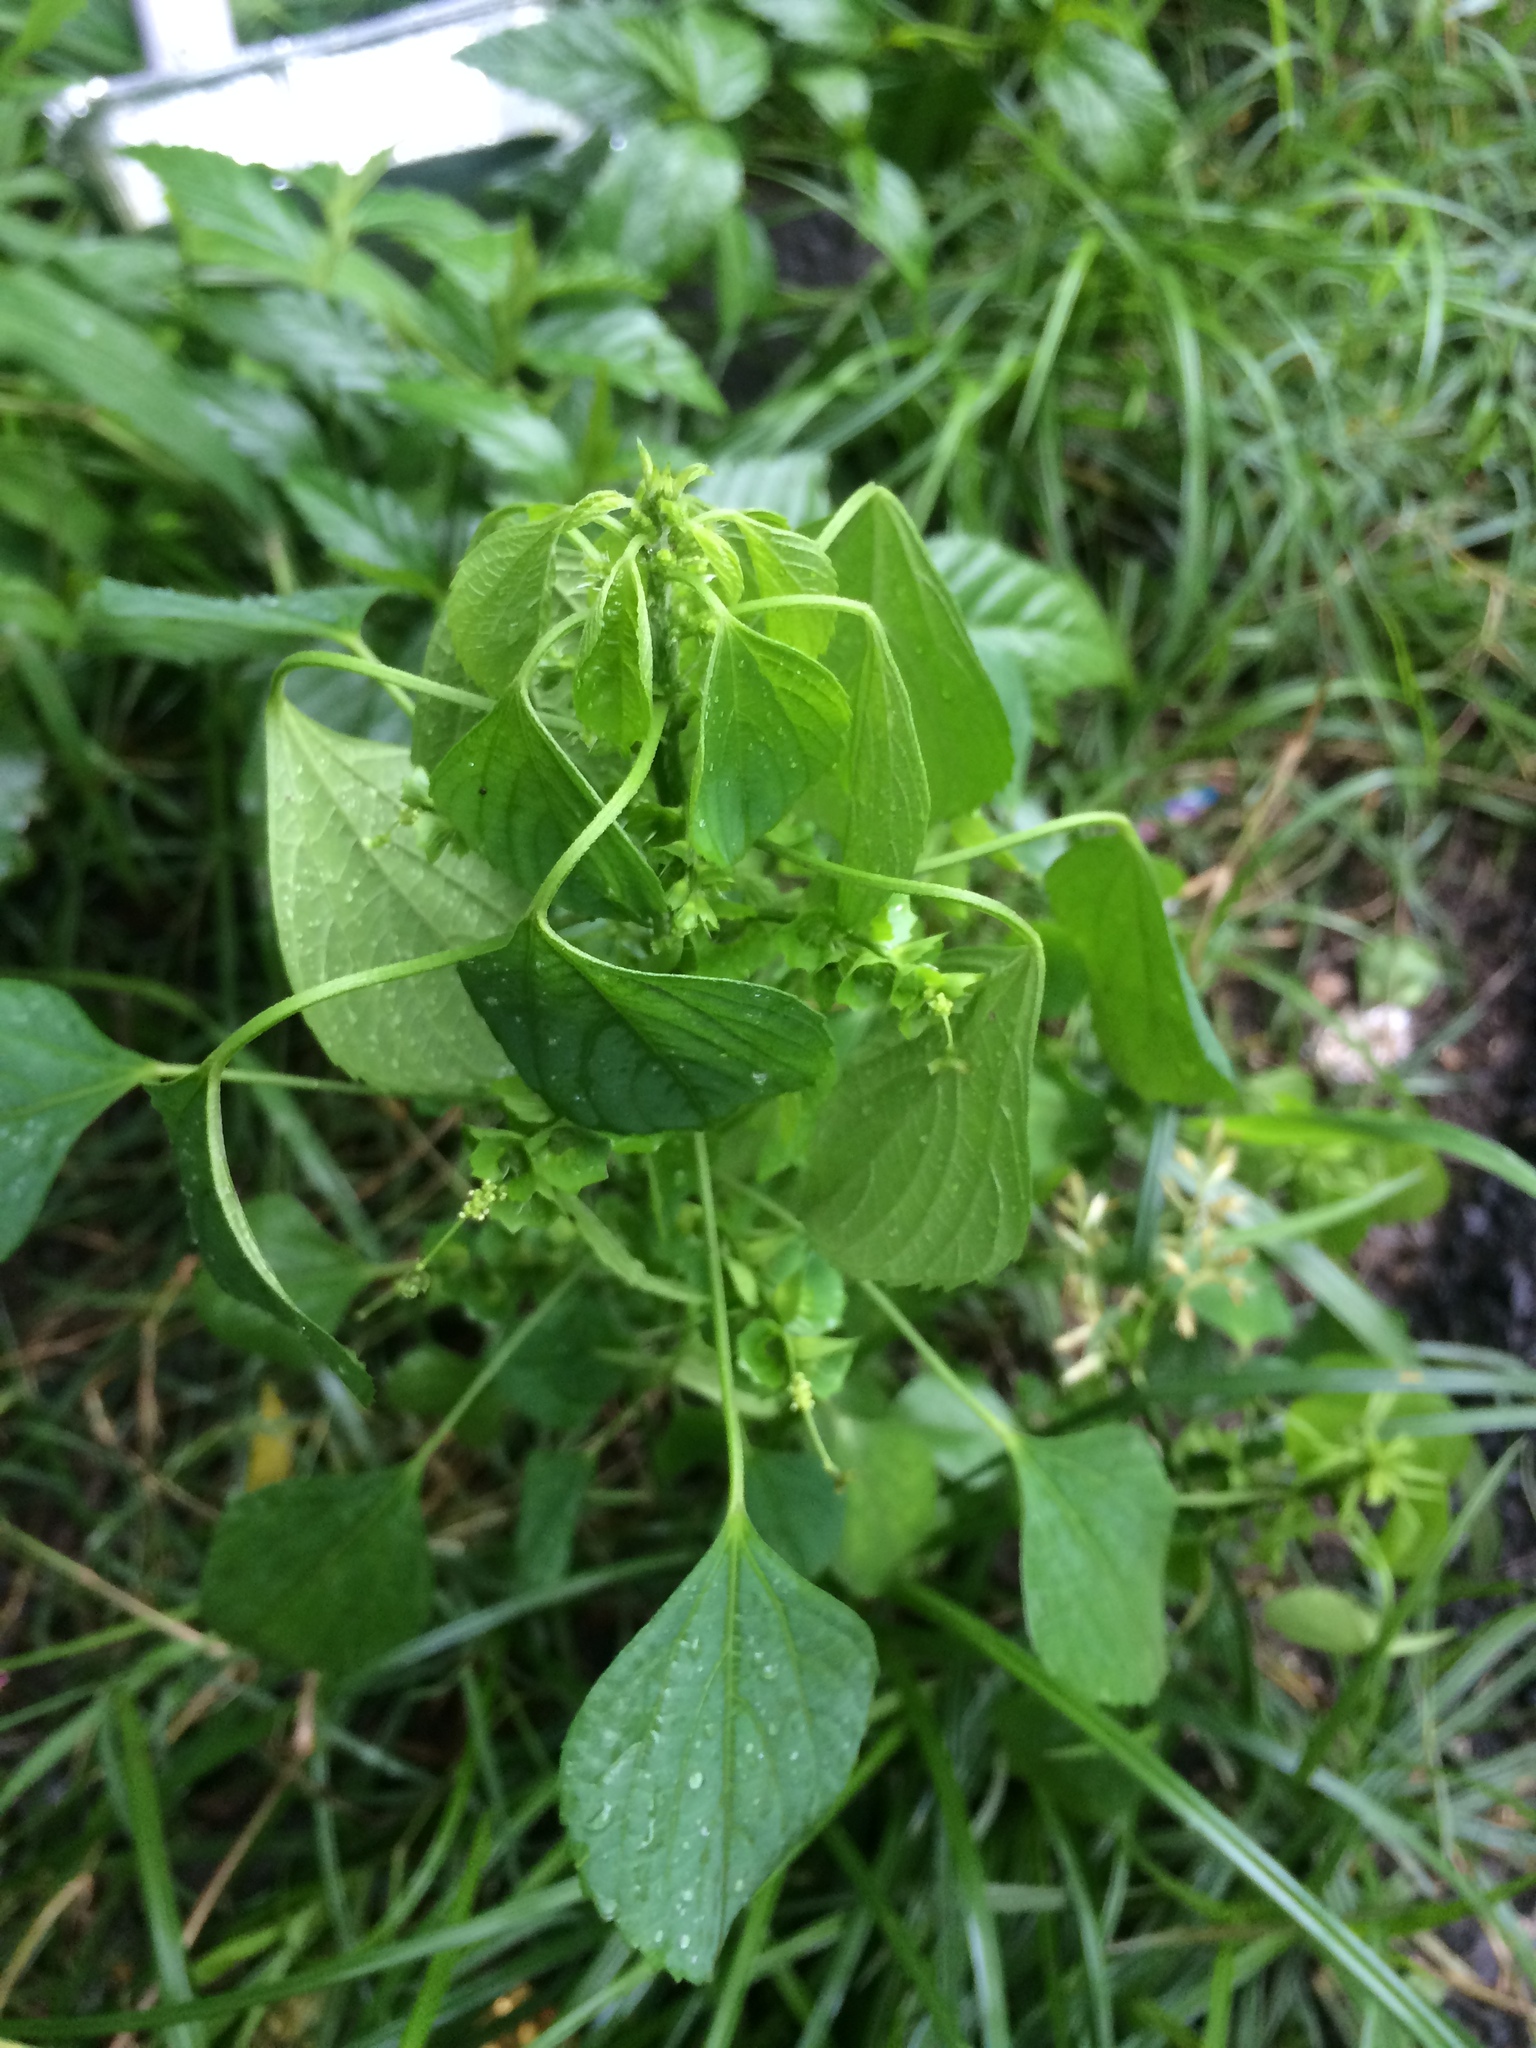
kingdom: Plantae
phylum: Tracheophyta
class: Magnoliopsida
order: Malpighiales
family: Euphorbiaceae
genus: Acalypha
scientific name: Acalypha indica
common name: Indian acalypha
